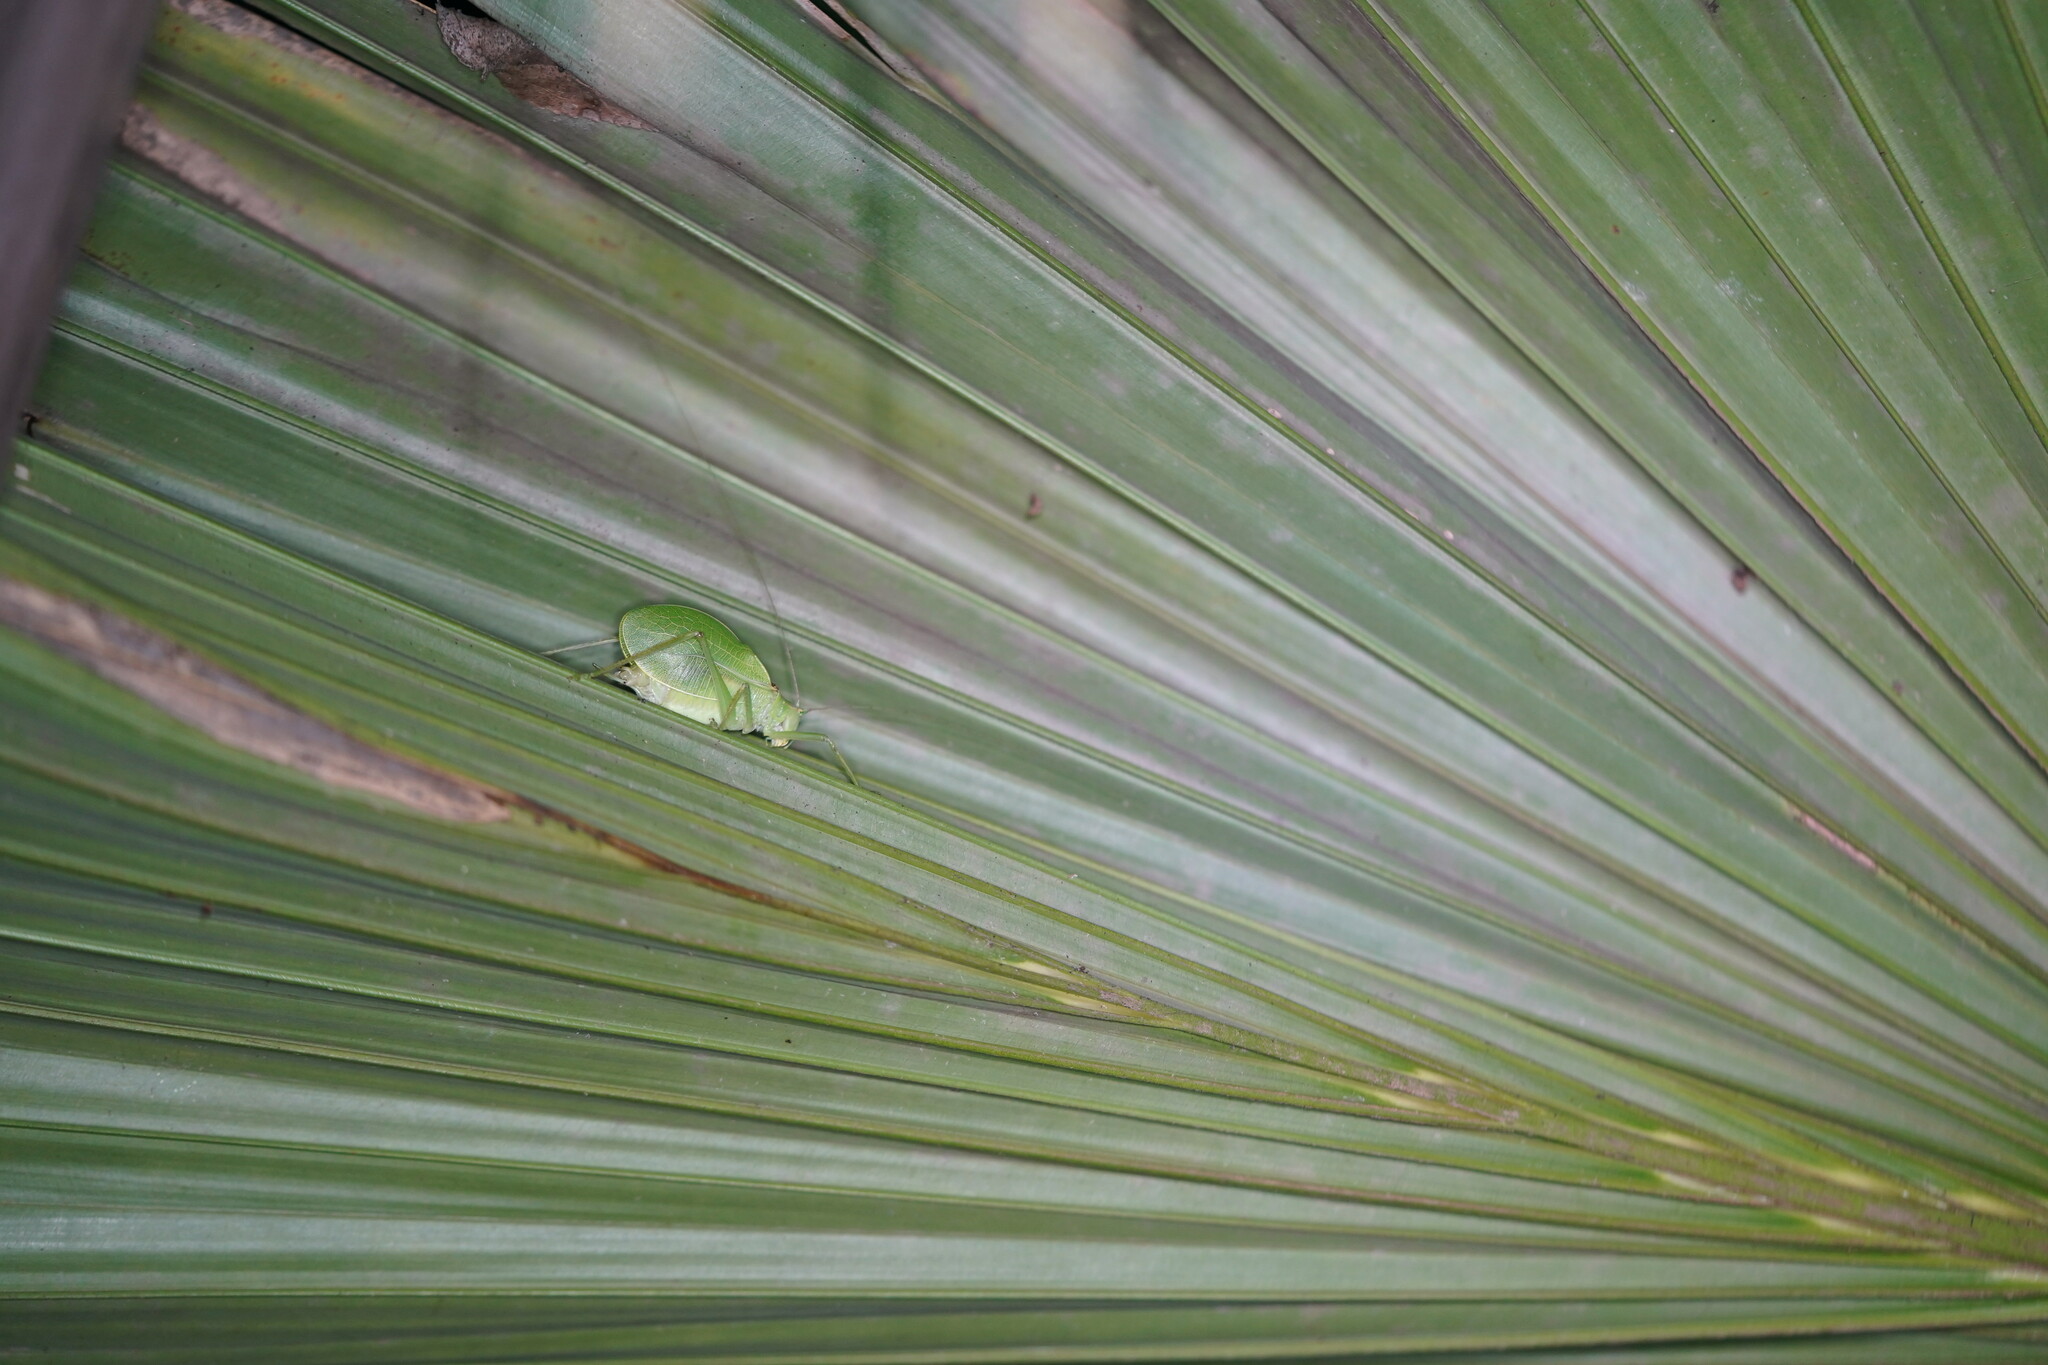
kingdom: Animalia
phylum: Arthropoda
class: Insecta
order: Orthoptera
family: Tettigoniidae
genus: Pterophylla
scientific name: Pterophylla camellifolia
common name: Common true katydid
